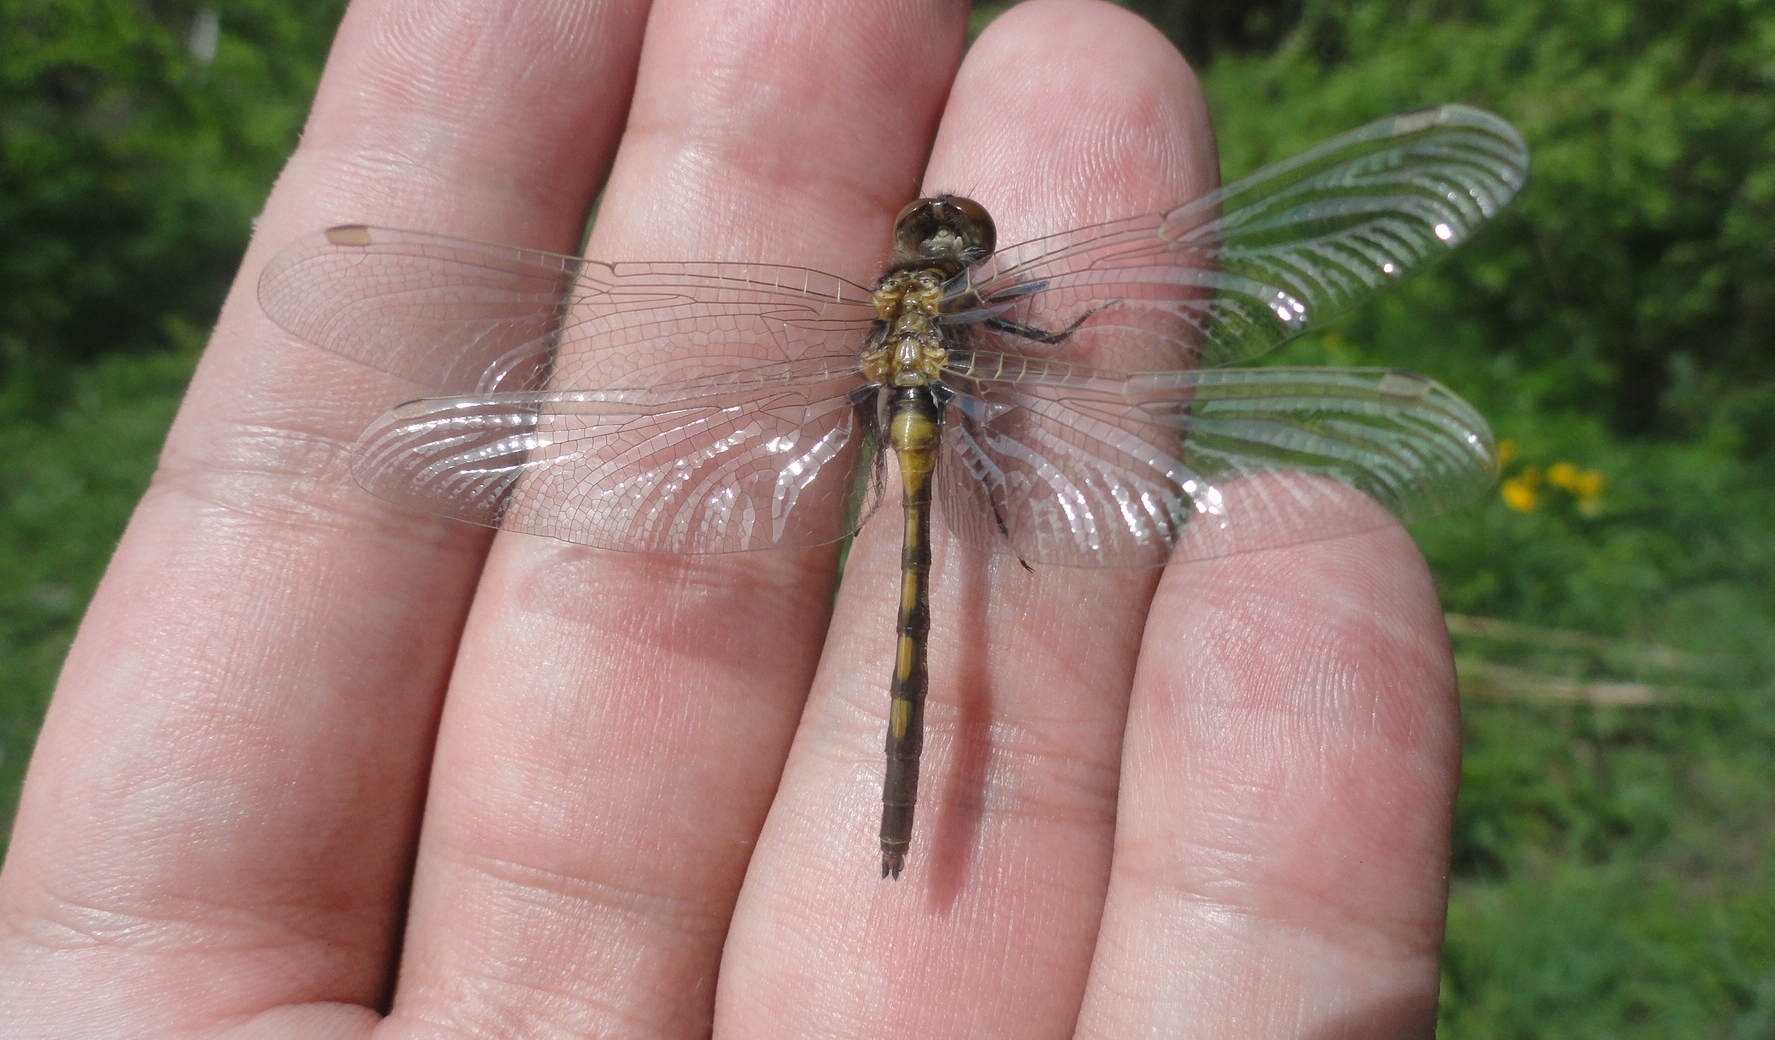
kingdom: Animalia
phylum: Arthropoda
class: Insecta
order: Odonata
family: Libellulidae
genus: Leucorrhinia
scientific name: Leucorrhinia rubicunda
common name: Ruby whiteface
